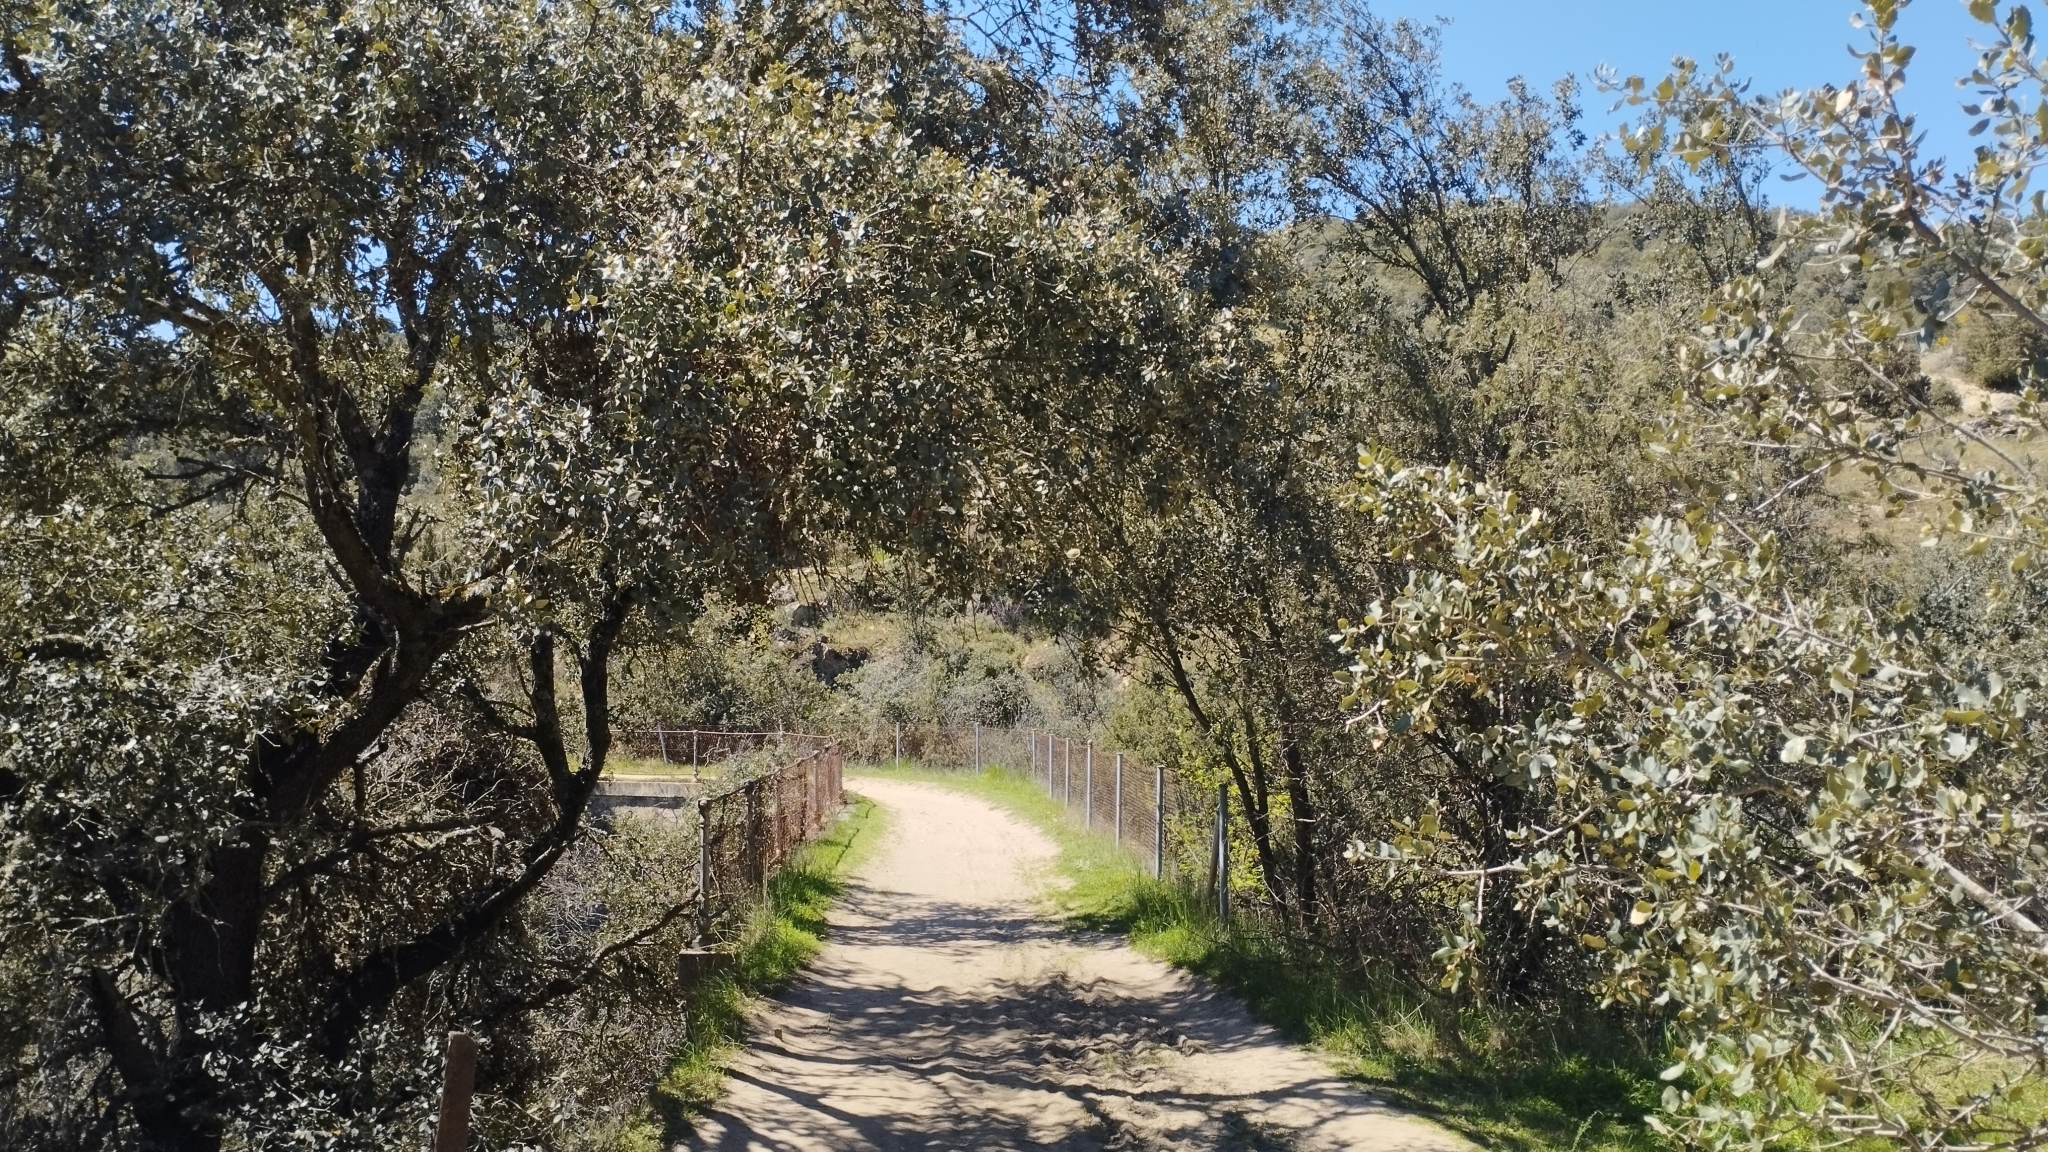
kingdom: Plantae
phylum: Tracheophyta
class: Magnoliopsida
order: Fagales
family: Fagaceae
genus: Quercus
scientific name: Quercus rotundifolia
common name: Holm oak
